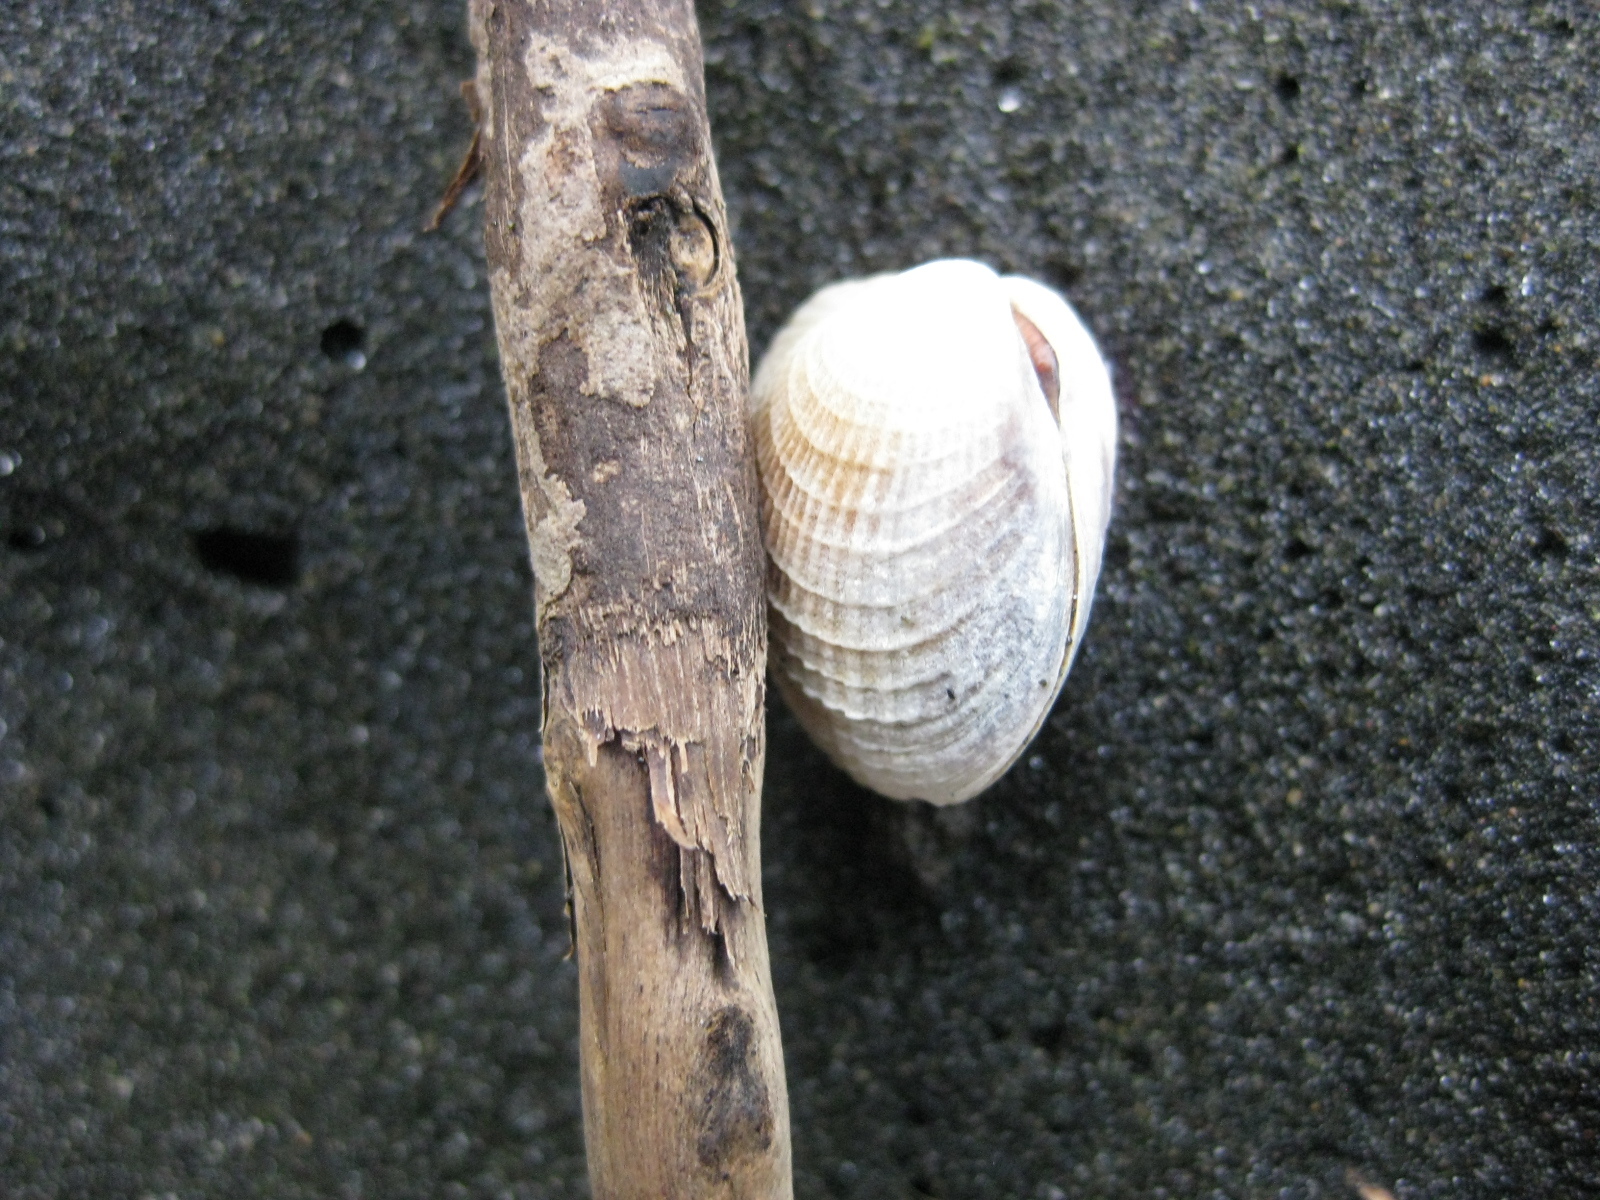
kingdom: Animalia
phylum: Mollusca
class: Bivalvia
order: Venerida
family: Veneridae
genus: Austrovenus
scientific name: Austrovenus stutchburyi
